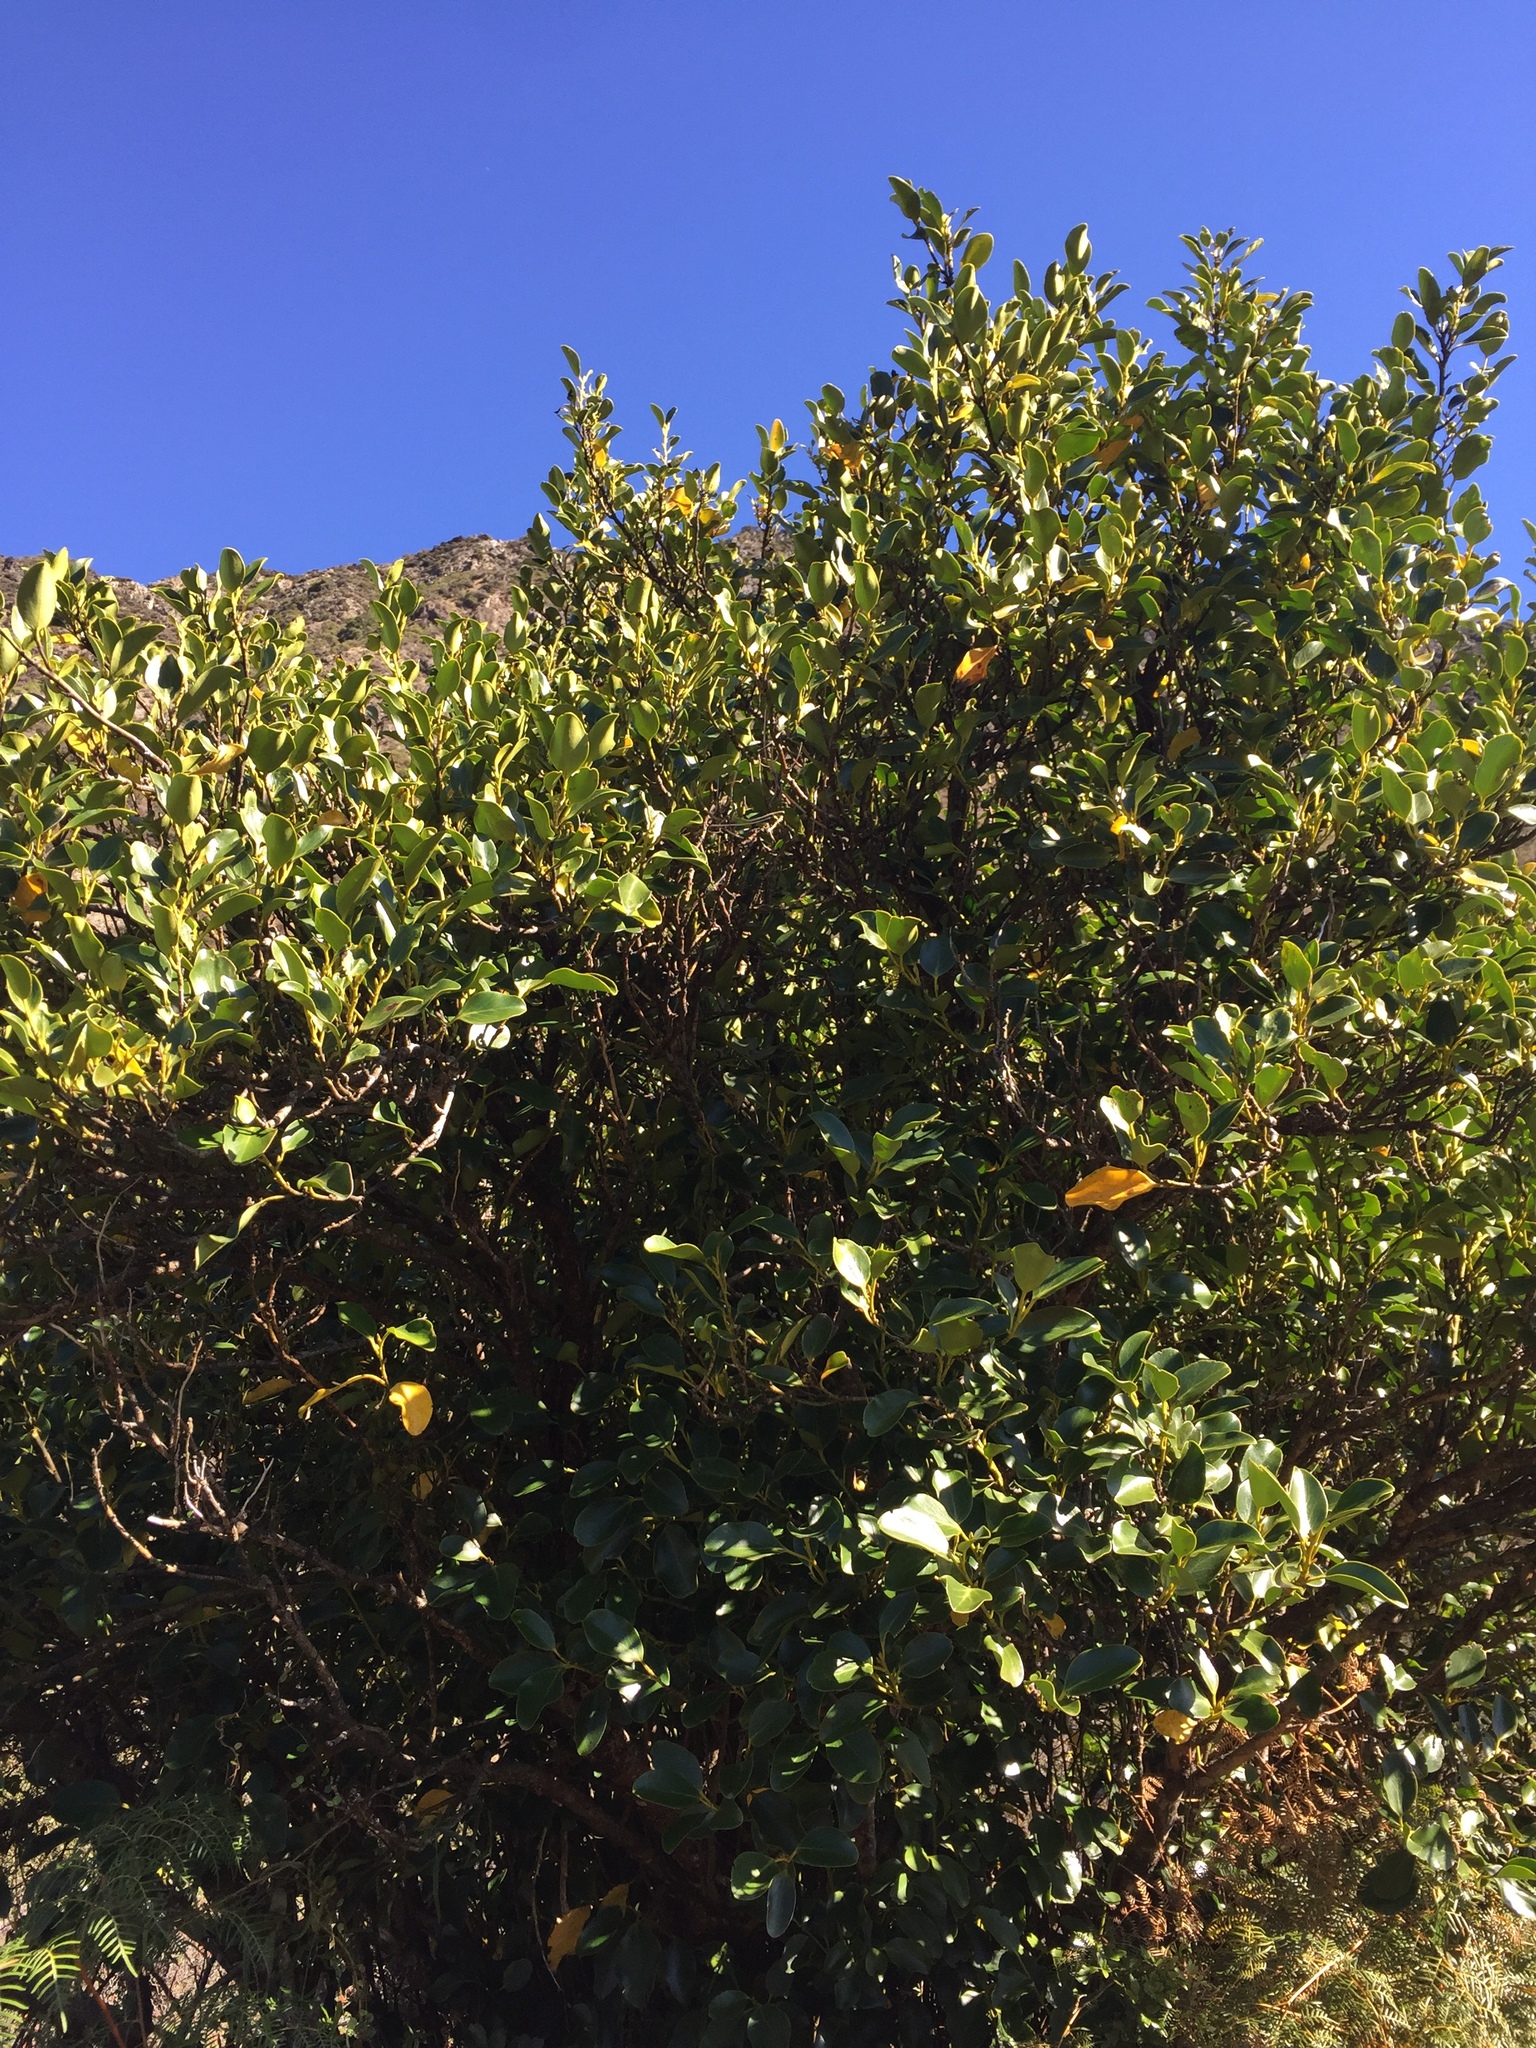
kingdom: Plantae
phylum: Tracheophyta
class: Magnoliopsida
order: Apiales
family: Griseliniaceae
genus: Griselinia
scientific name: Griselinia littoralis
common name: New zealand broadleaf
